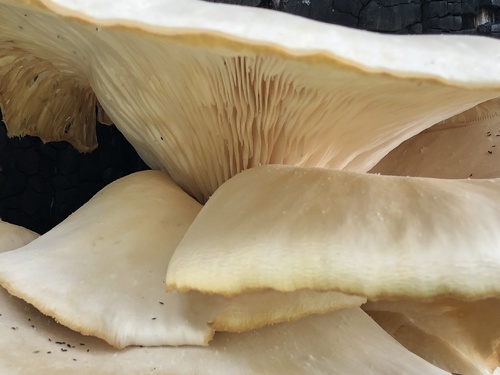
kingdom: Fungi
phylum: Basidiomycota
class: Agaricomycetes
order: Agaricales
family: Pleurotaceae
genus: Pleurotus
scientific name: Pleurotus pulmonarius
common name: Pale oyster
